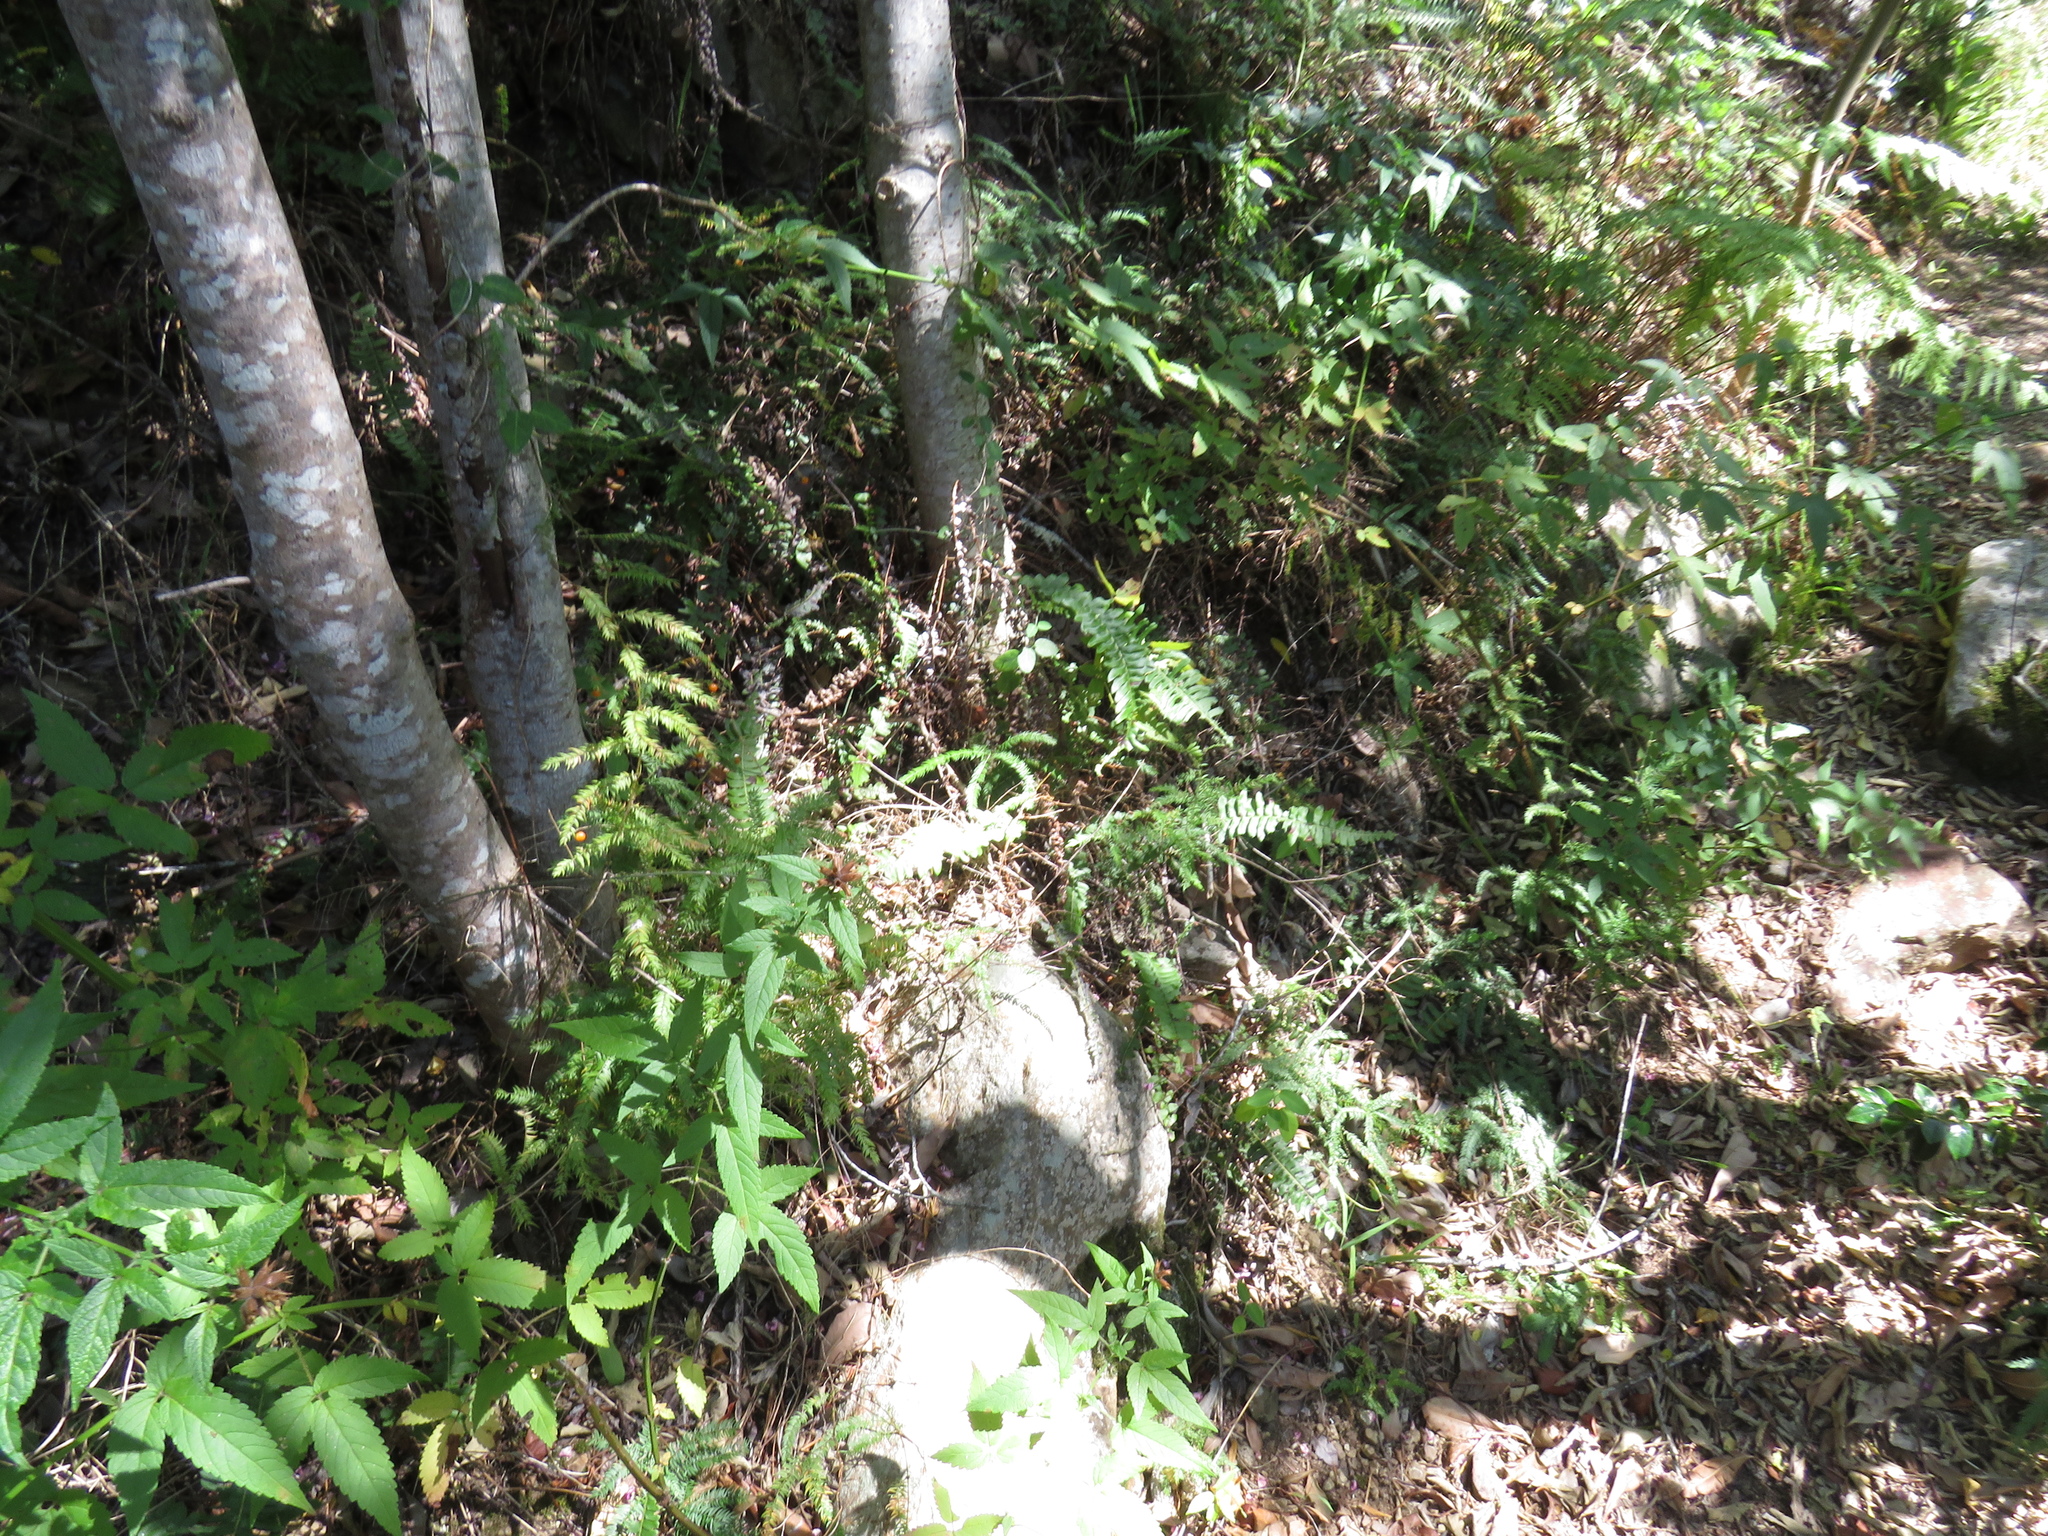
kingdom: Plantae
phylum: Tracheophyta
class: Magnoliopsida
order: Lamiales
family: Lamiaceae
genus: Cedronella
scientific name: Cedronella canariensis
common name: Canary islands balm
